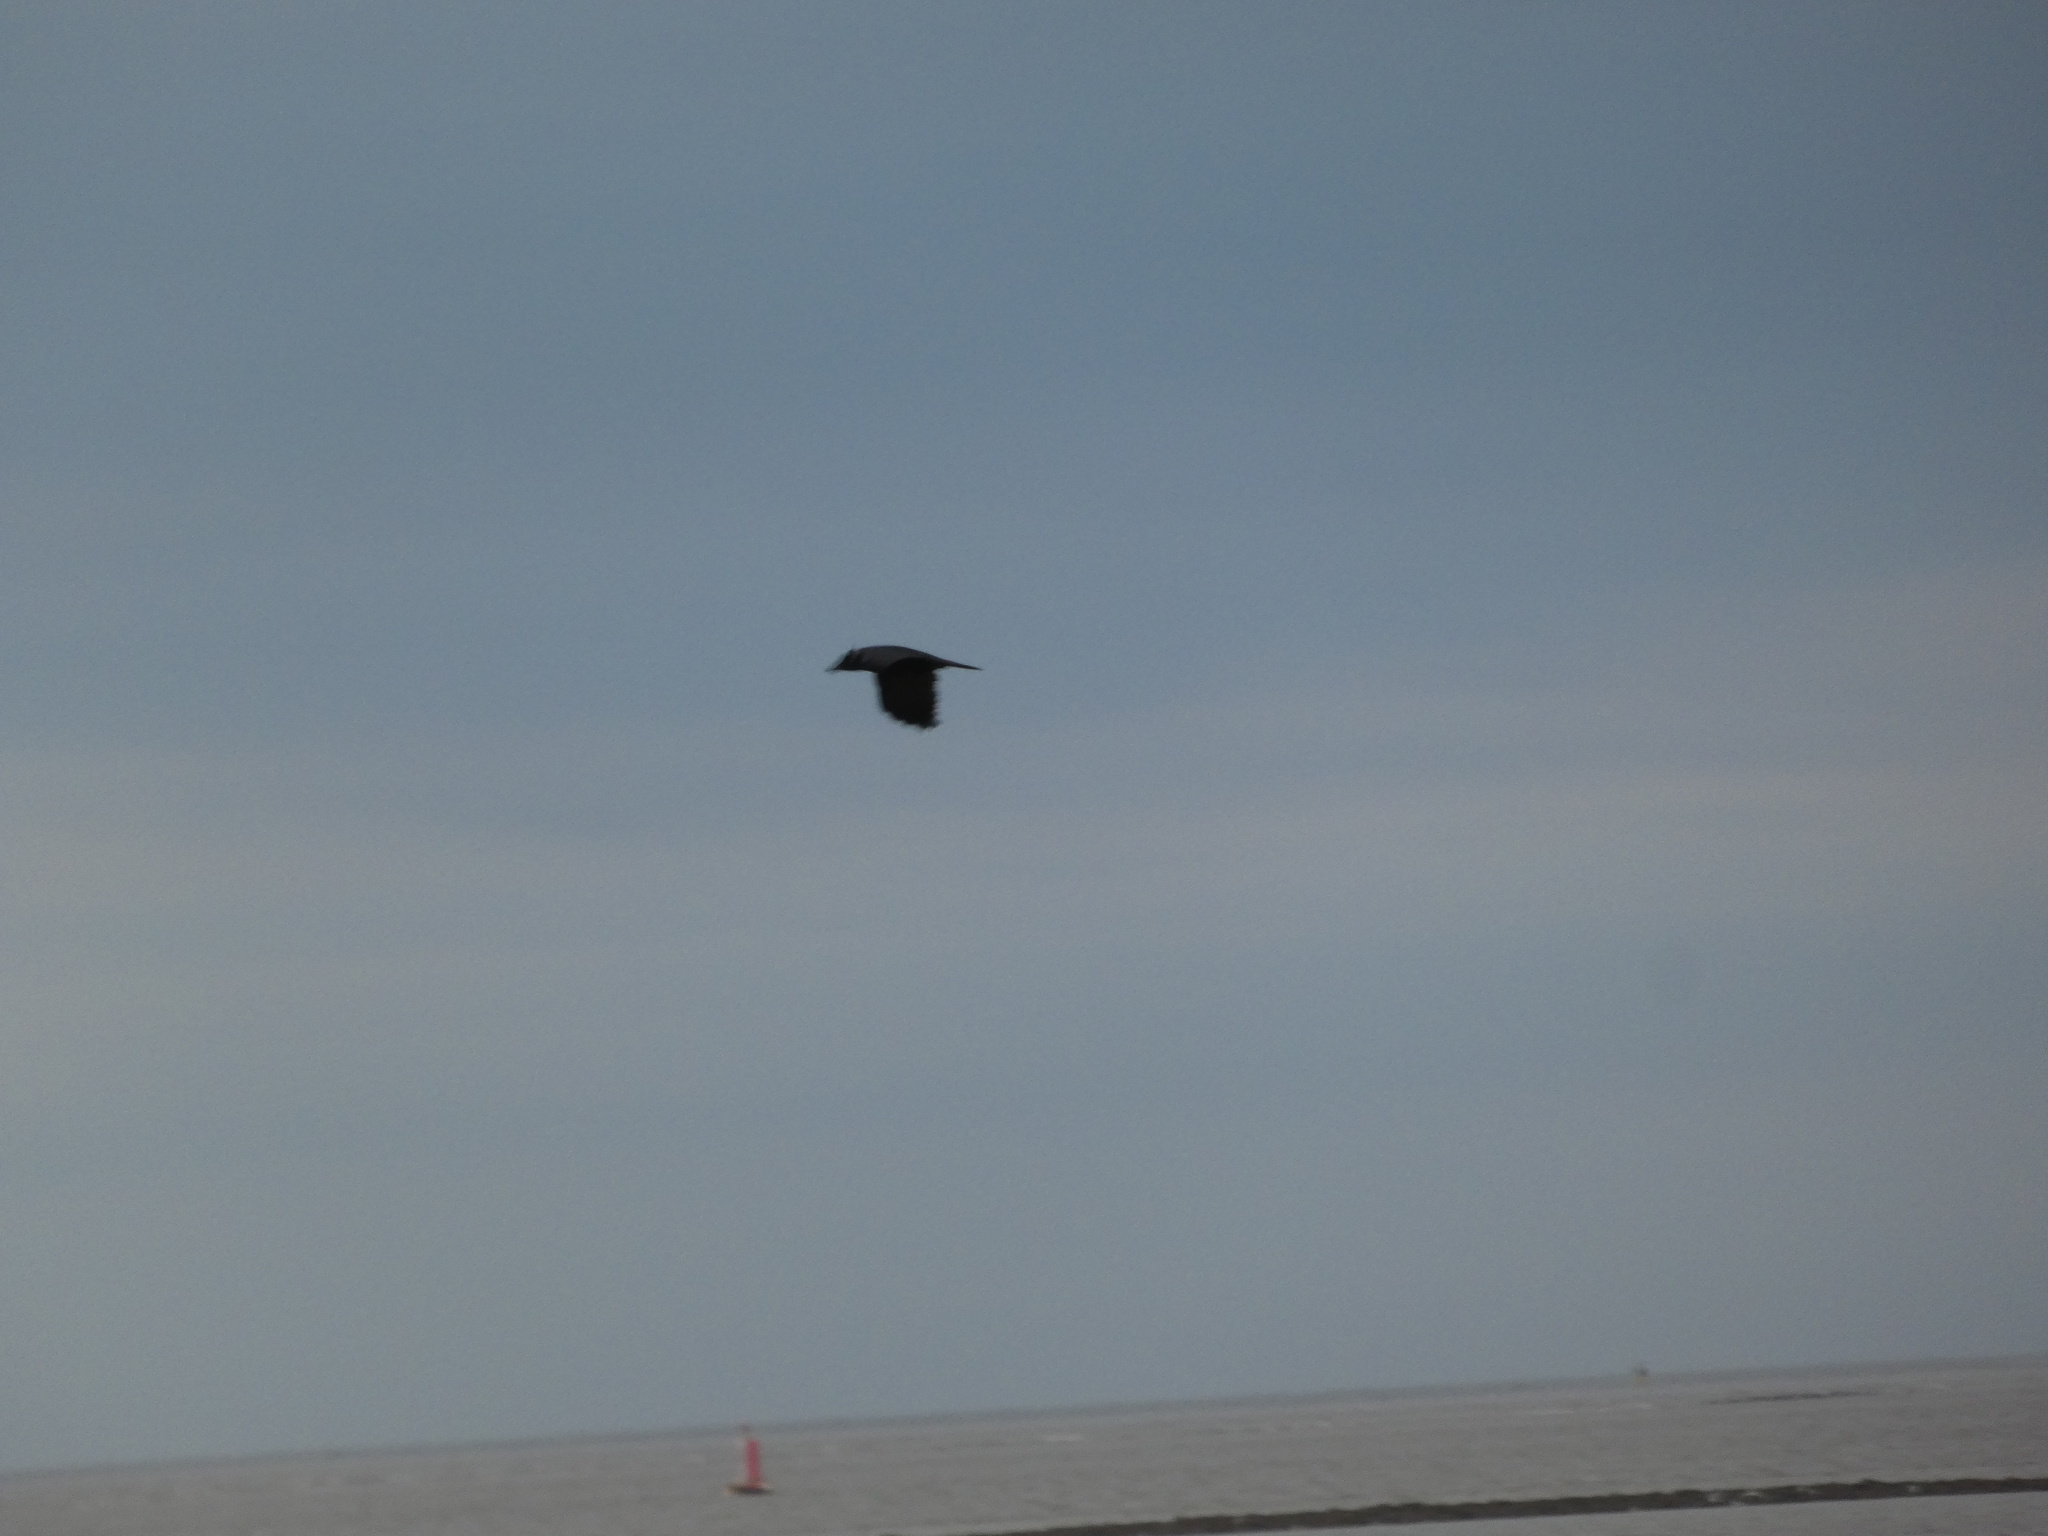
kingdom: Animalia
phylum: Chordata
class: Aves
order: Passeriformes
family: Corvidae
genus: Corvus
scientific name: Corvus corone
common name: Carrion crow
